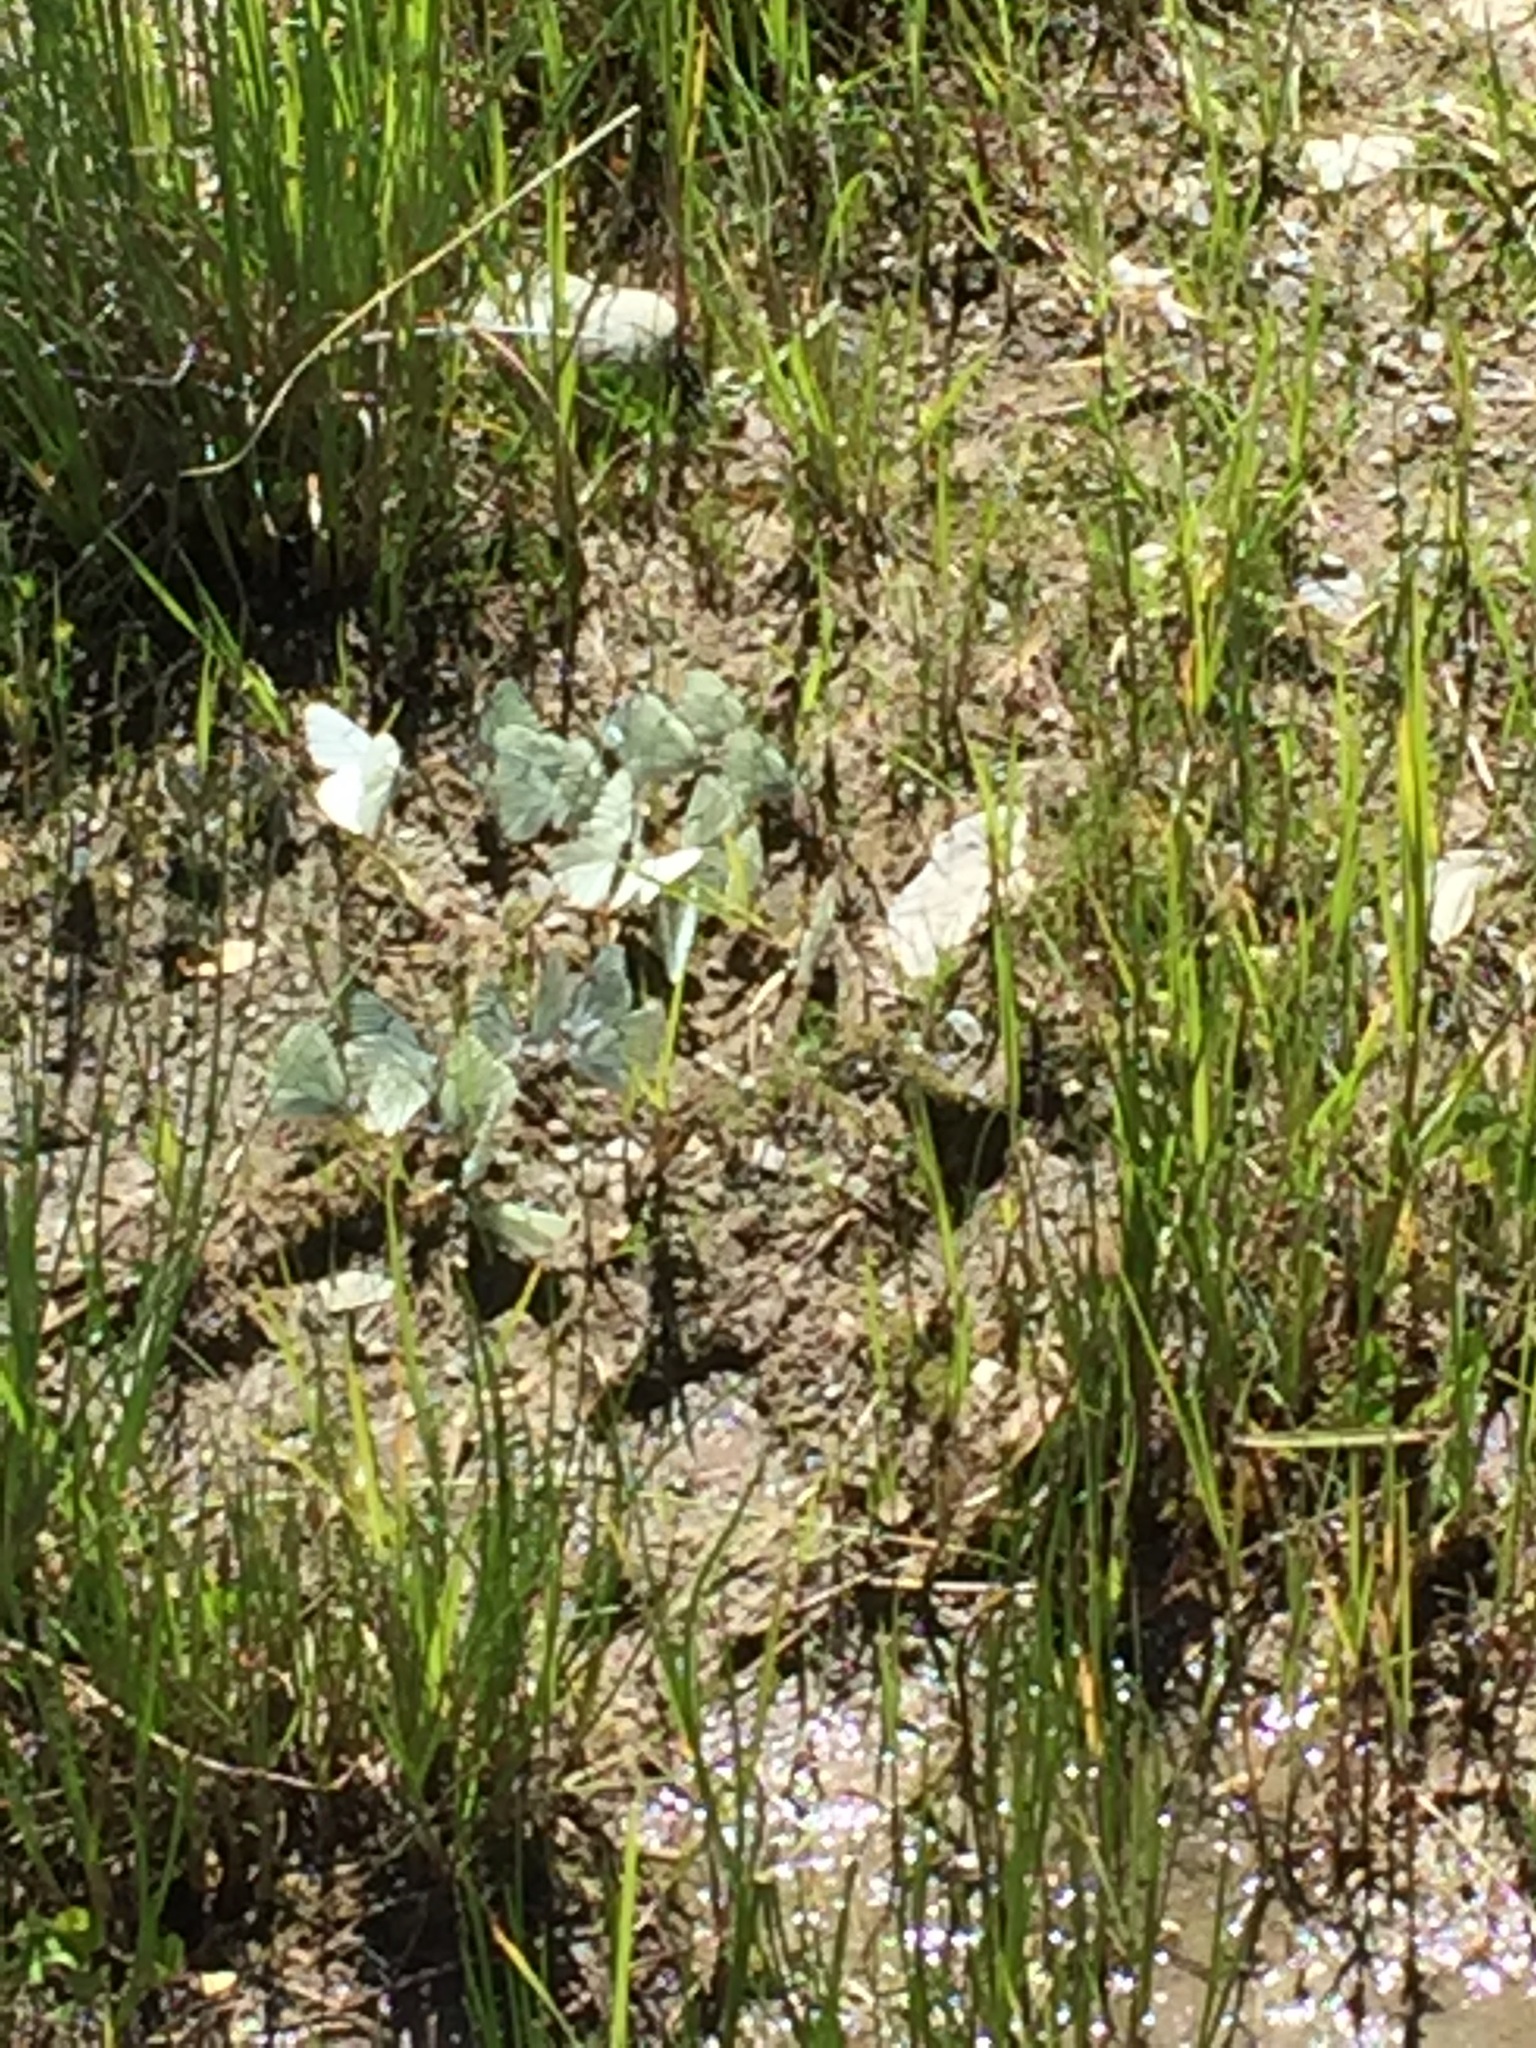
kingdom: Animalia
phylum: Arthropoda
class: Insecta
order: Lepidoptera
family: Pieridae
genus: Aporia
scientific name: Aporia crataegi
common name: Black-veined white
